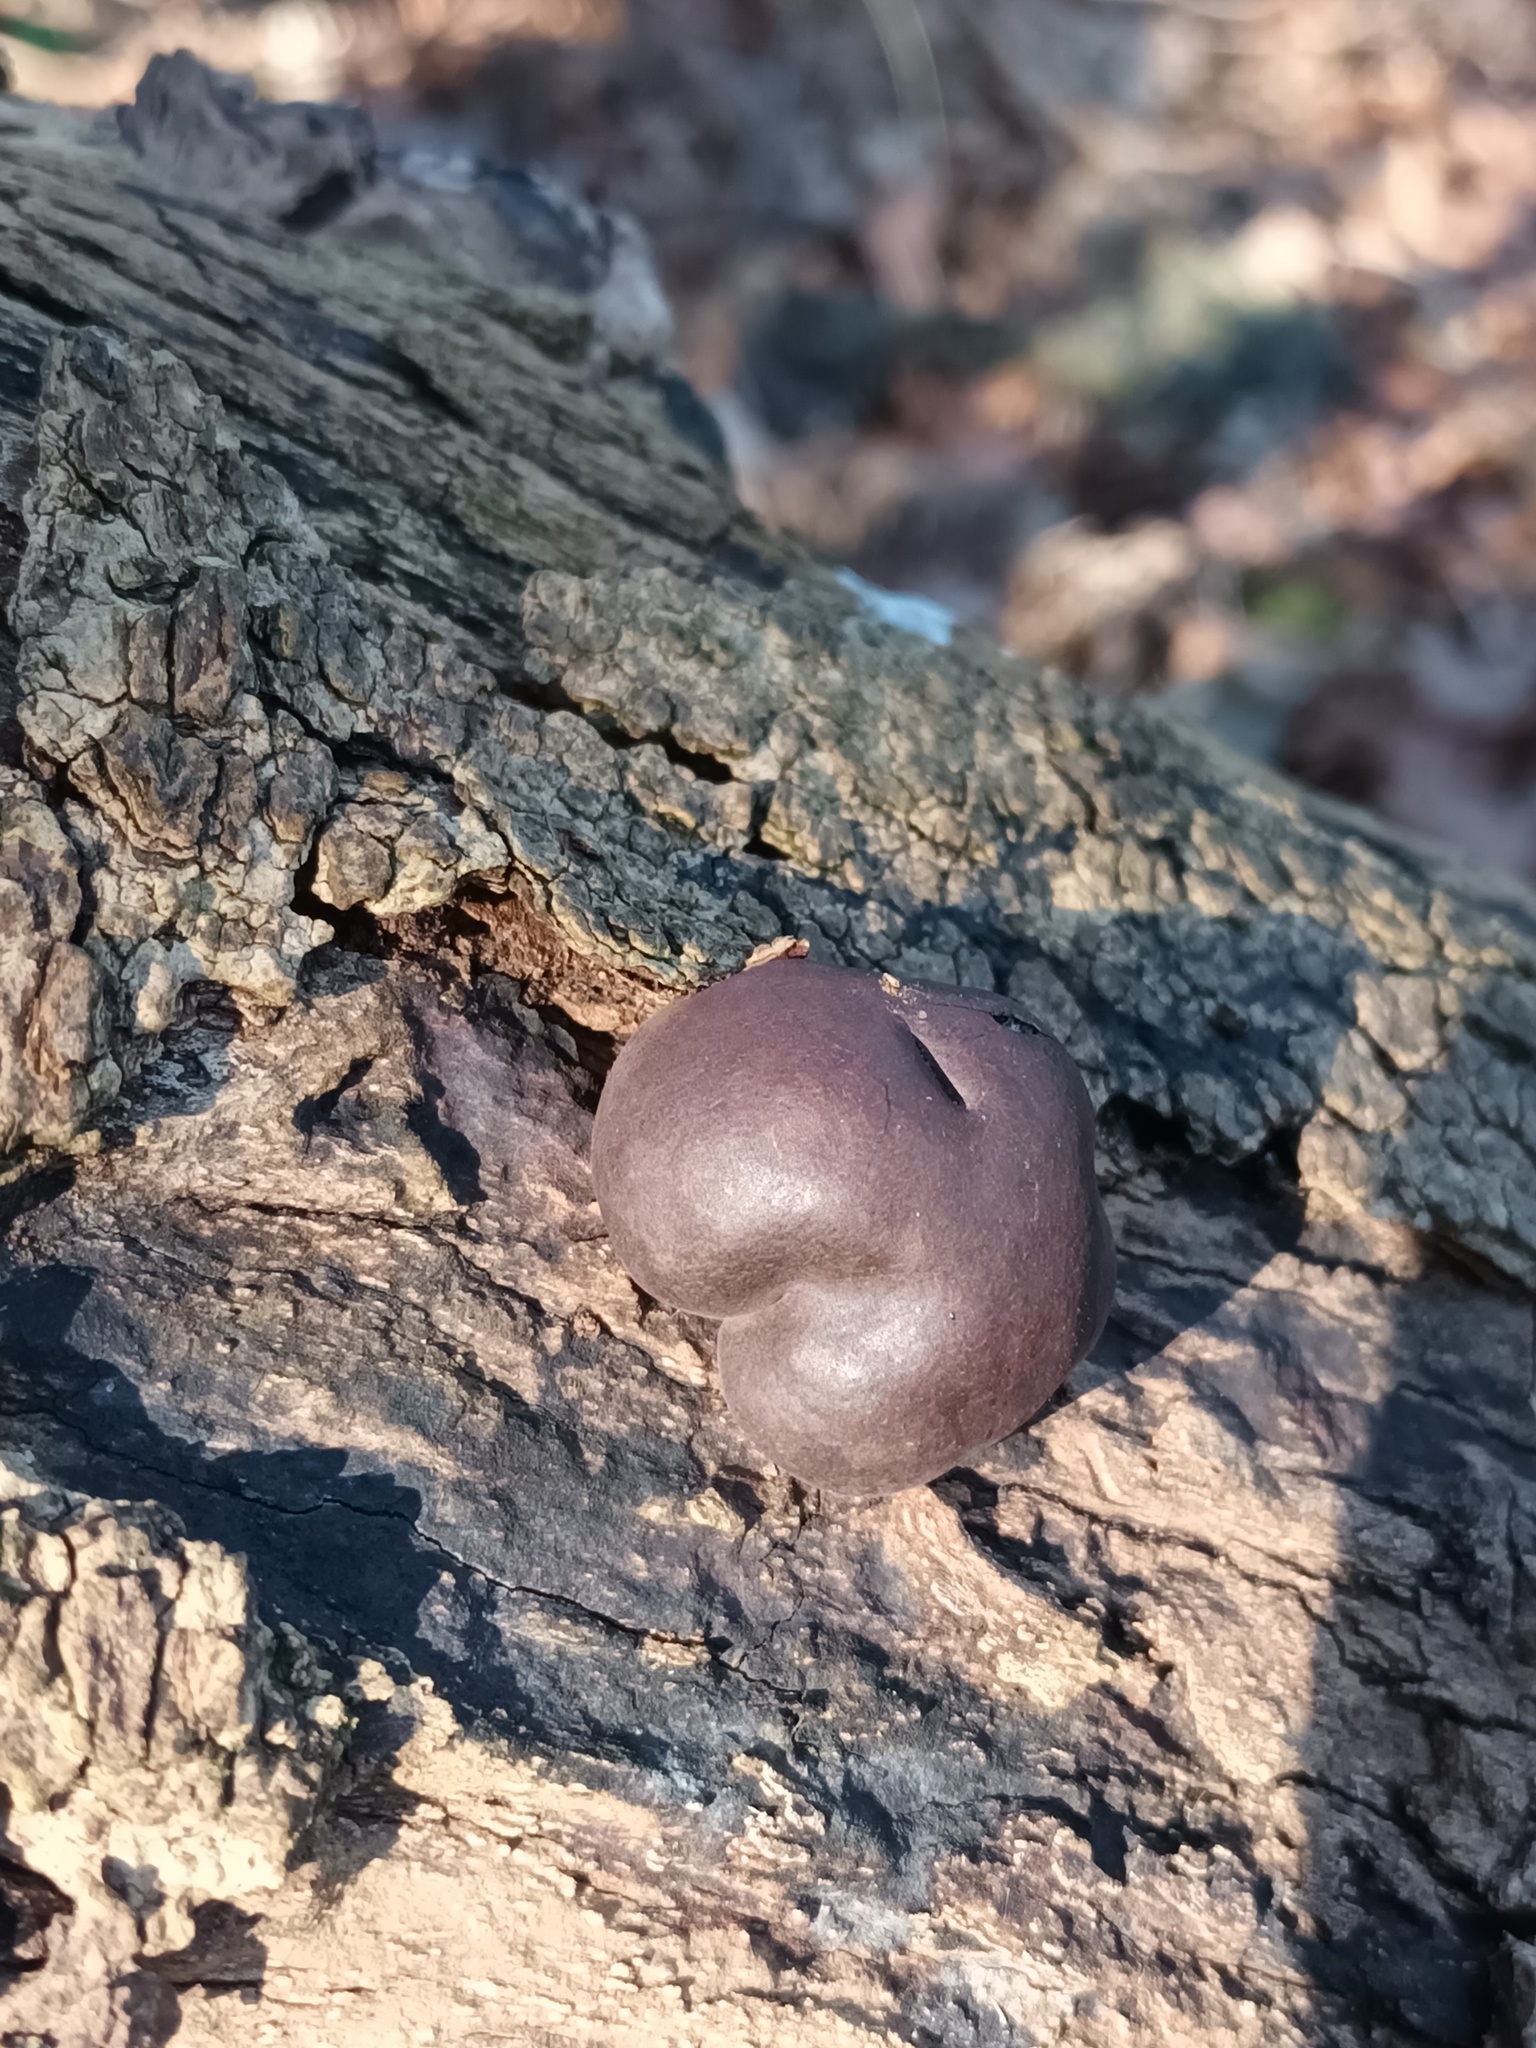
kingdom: Fungi
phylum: Ascomycota
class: Sordariomycetes
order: Xylariales
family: Hypoxylaceae
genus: Daldinia
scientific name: Daldinia concentrica
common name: Cramp balls
